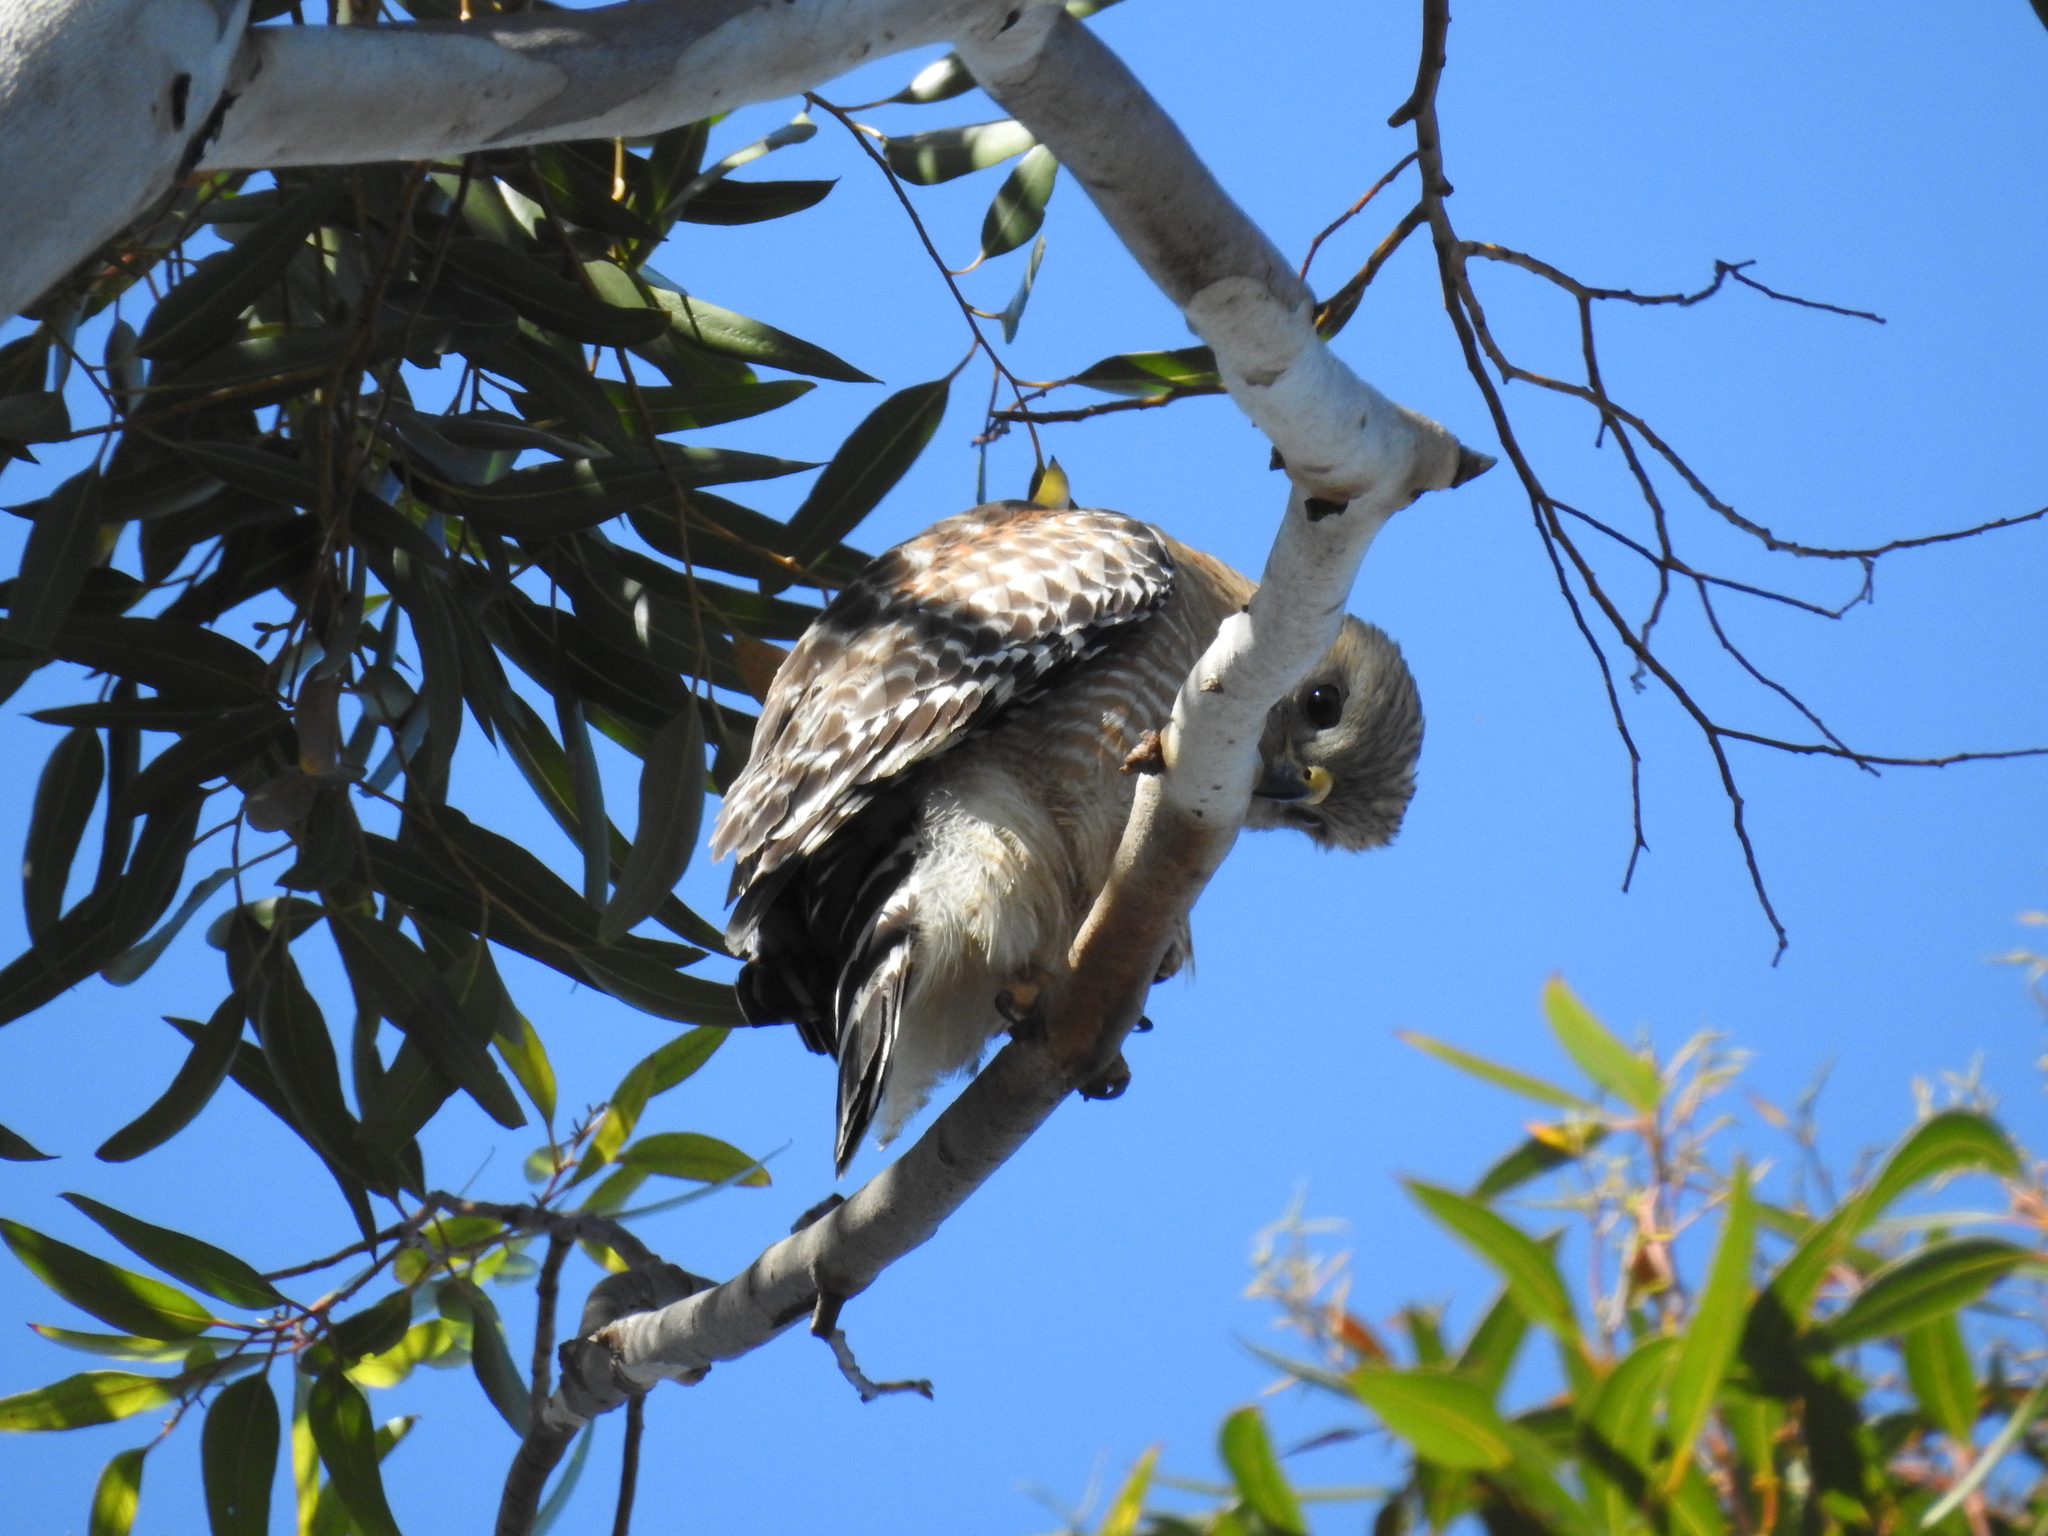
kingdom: Animalia
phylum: Chordata
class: Aves
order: Accipitriformes
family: Accipitridae
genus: Buteo
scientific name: Buteo lineatus
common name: Red-shouldered hawk
